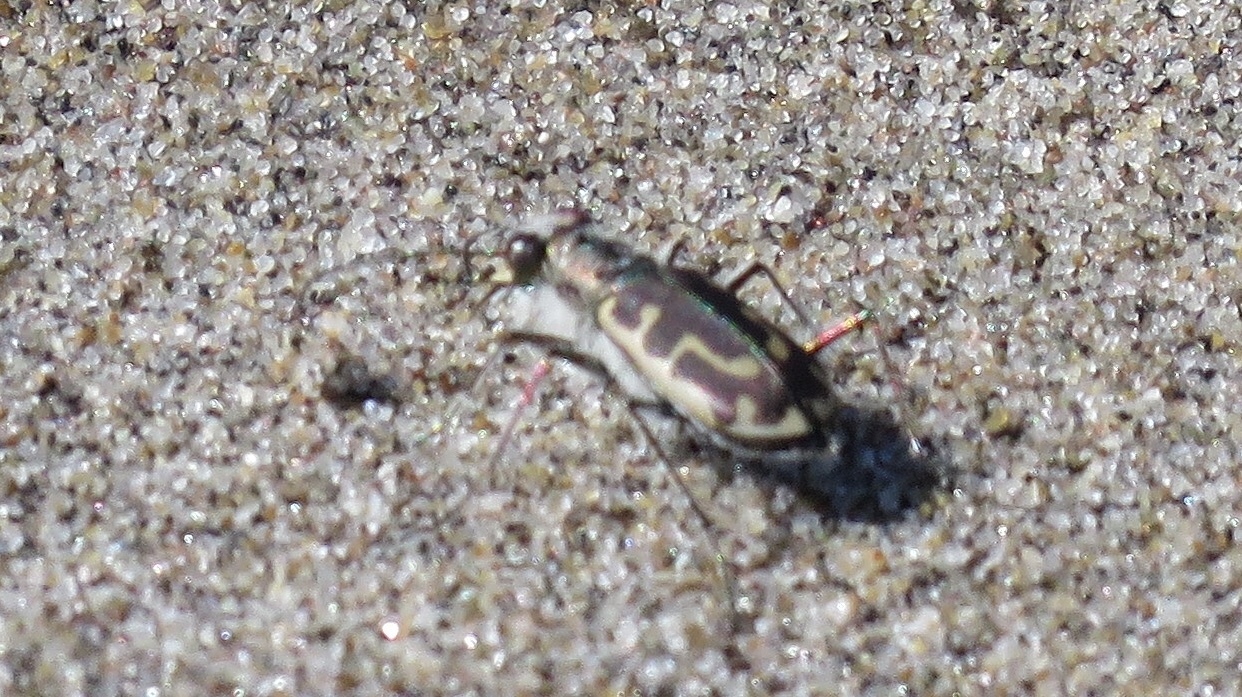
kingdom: Animalia
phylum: Arthropoda
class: Insecta
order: Coleoptera
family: Carabidae
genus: Cicindela
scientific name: Cicindela hirticollis
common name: Hairy-necked tiger beetle
